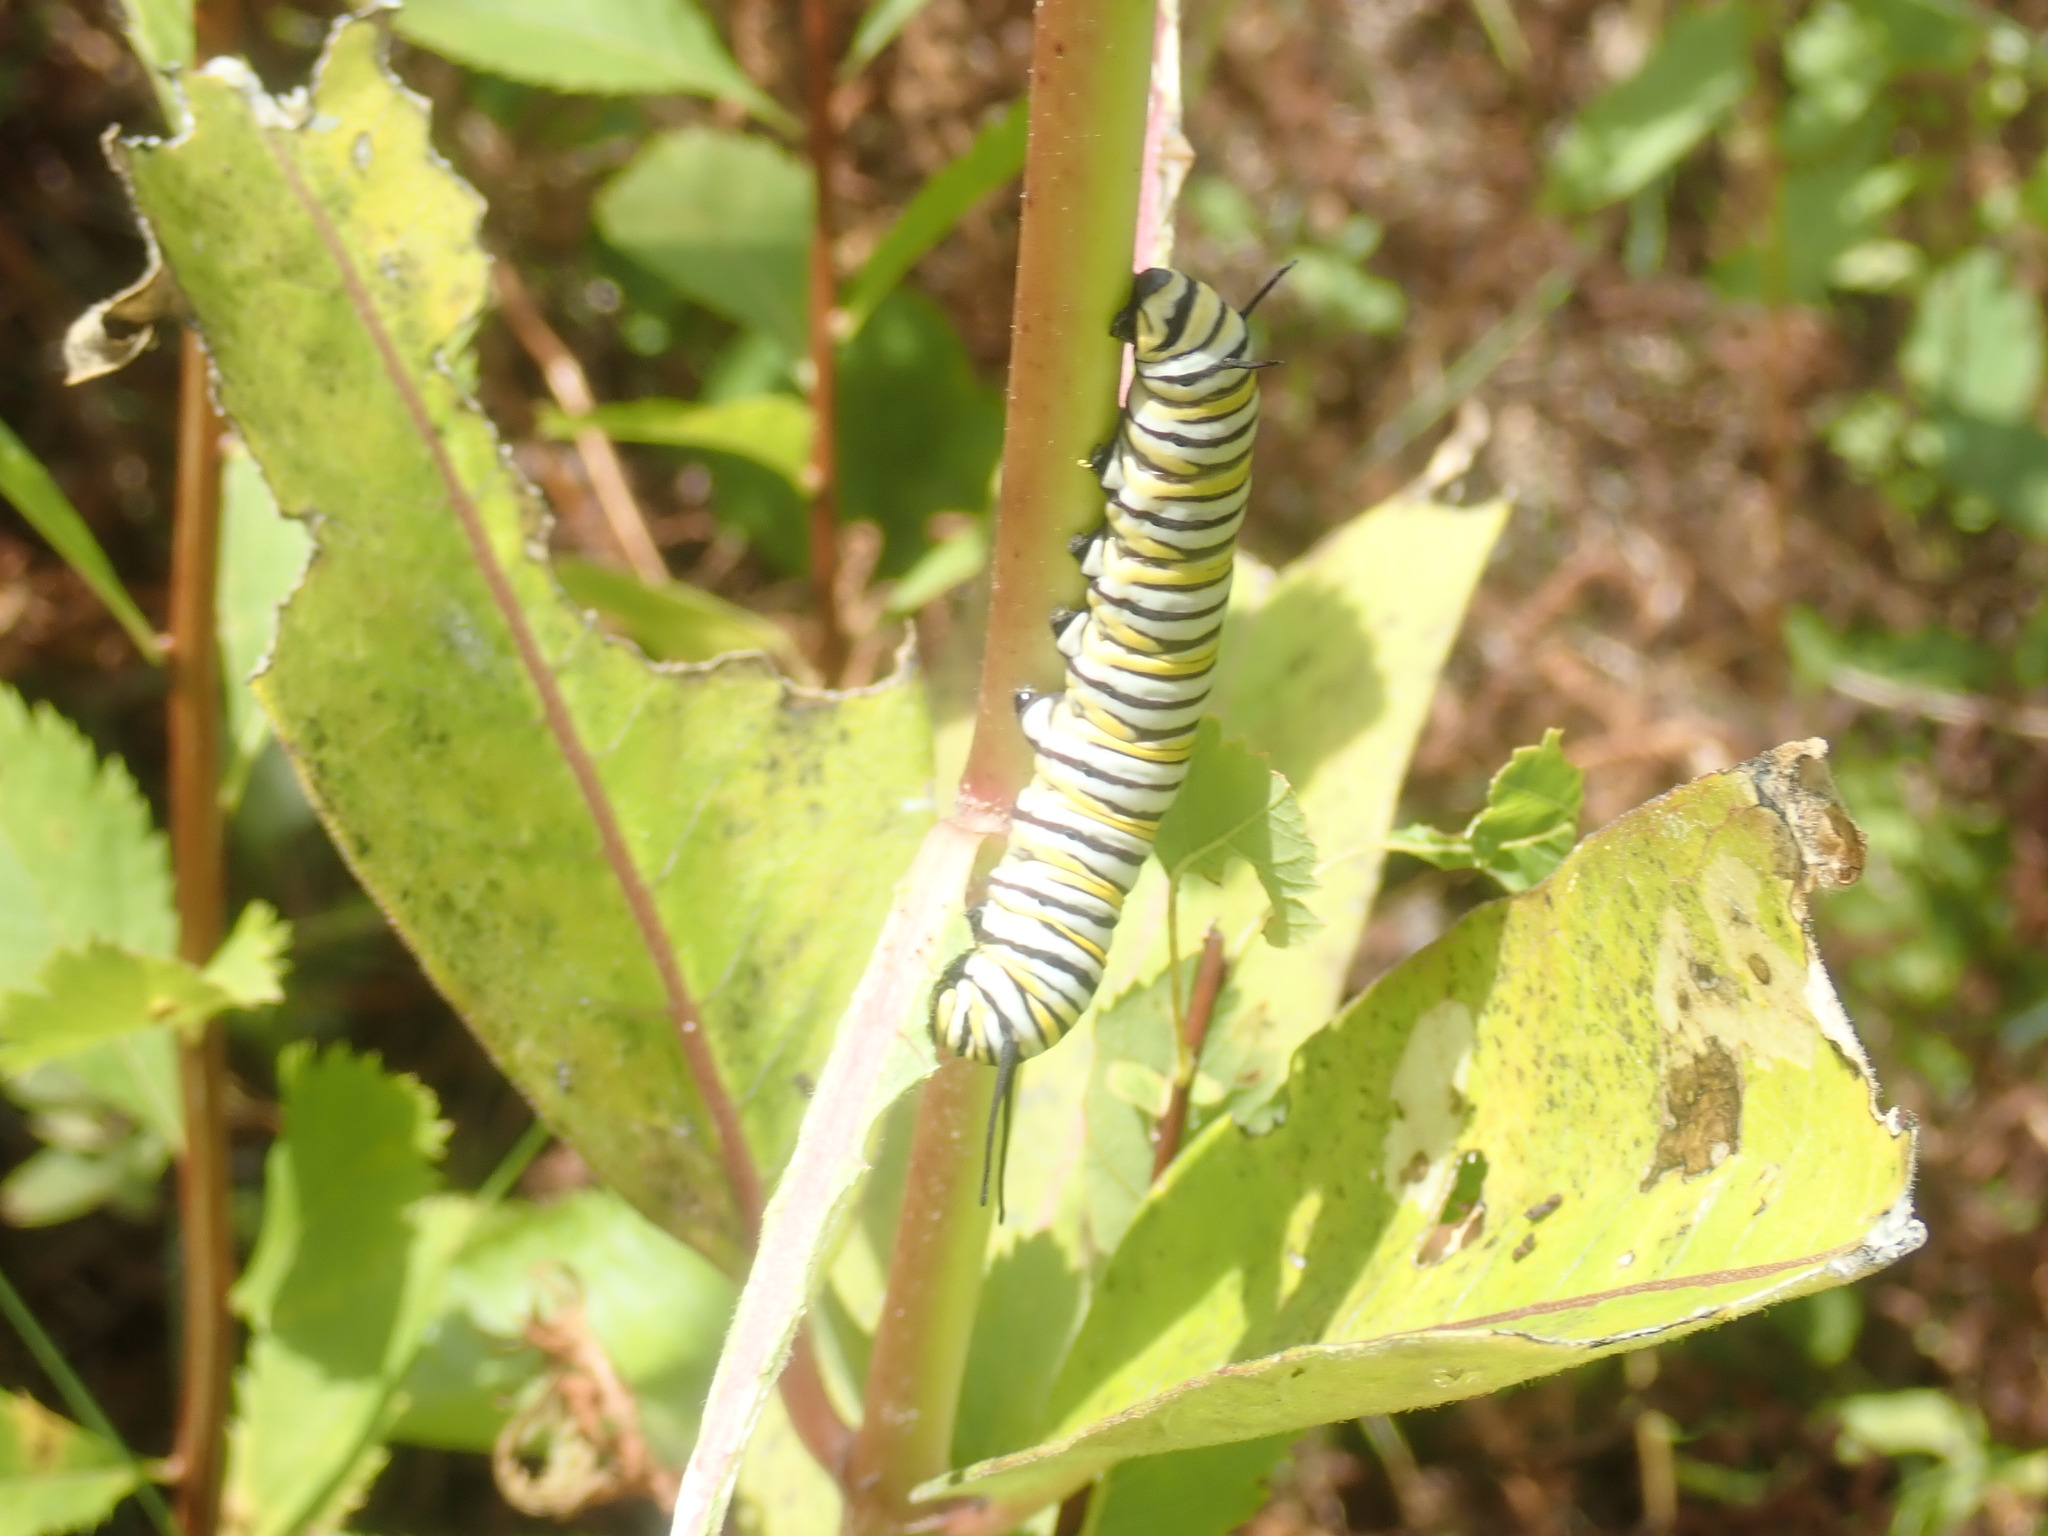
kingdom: Animalia
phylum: Arthropoda
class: Insecta
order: Lepidoptera
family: Nymphalidae
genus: Danaus
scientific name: Danaus plexippus
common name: Monarch
